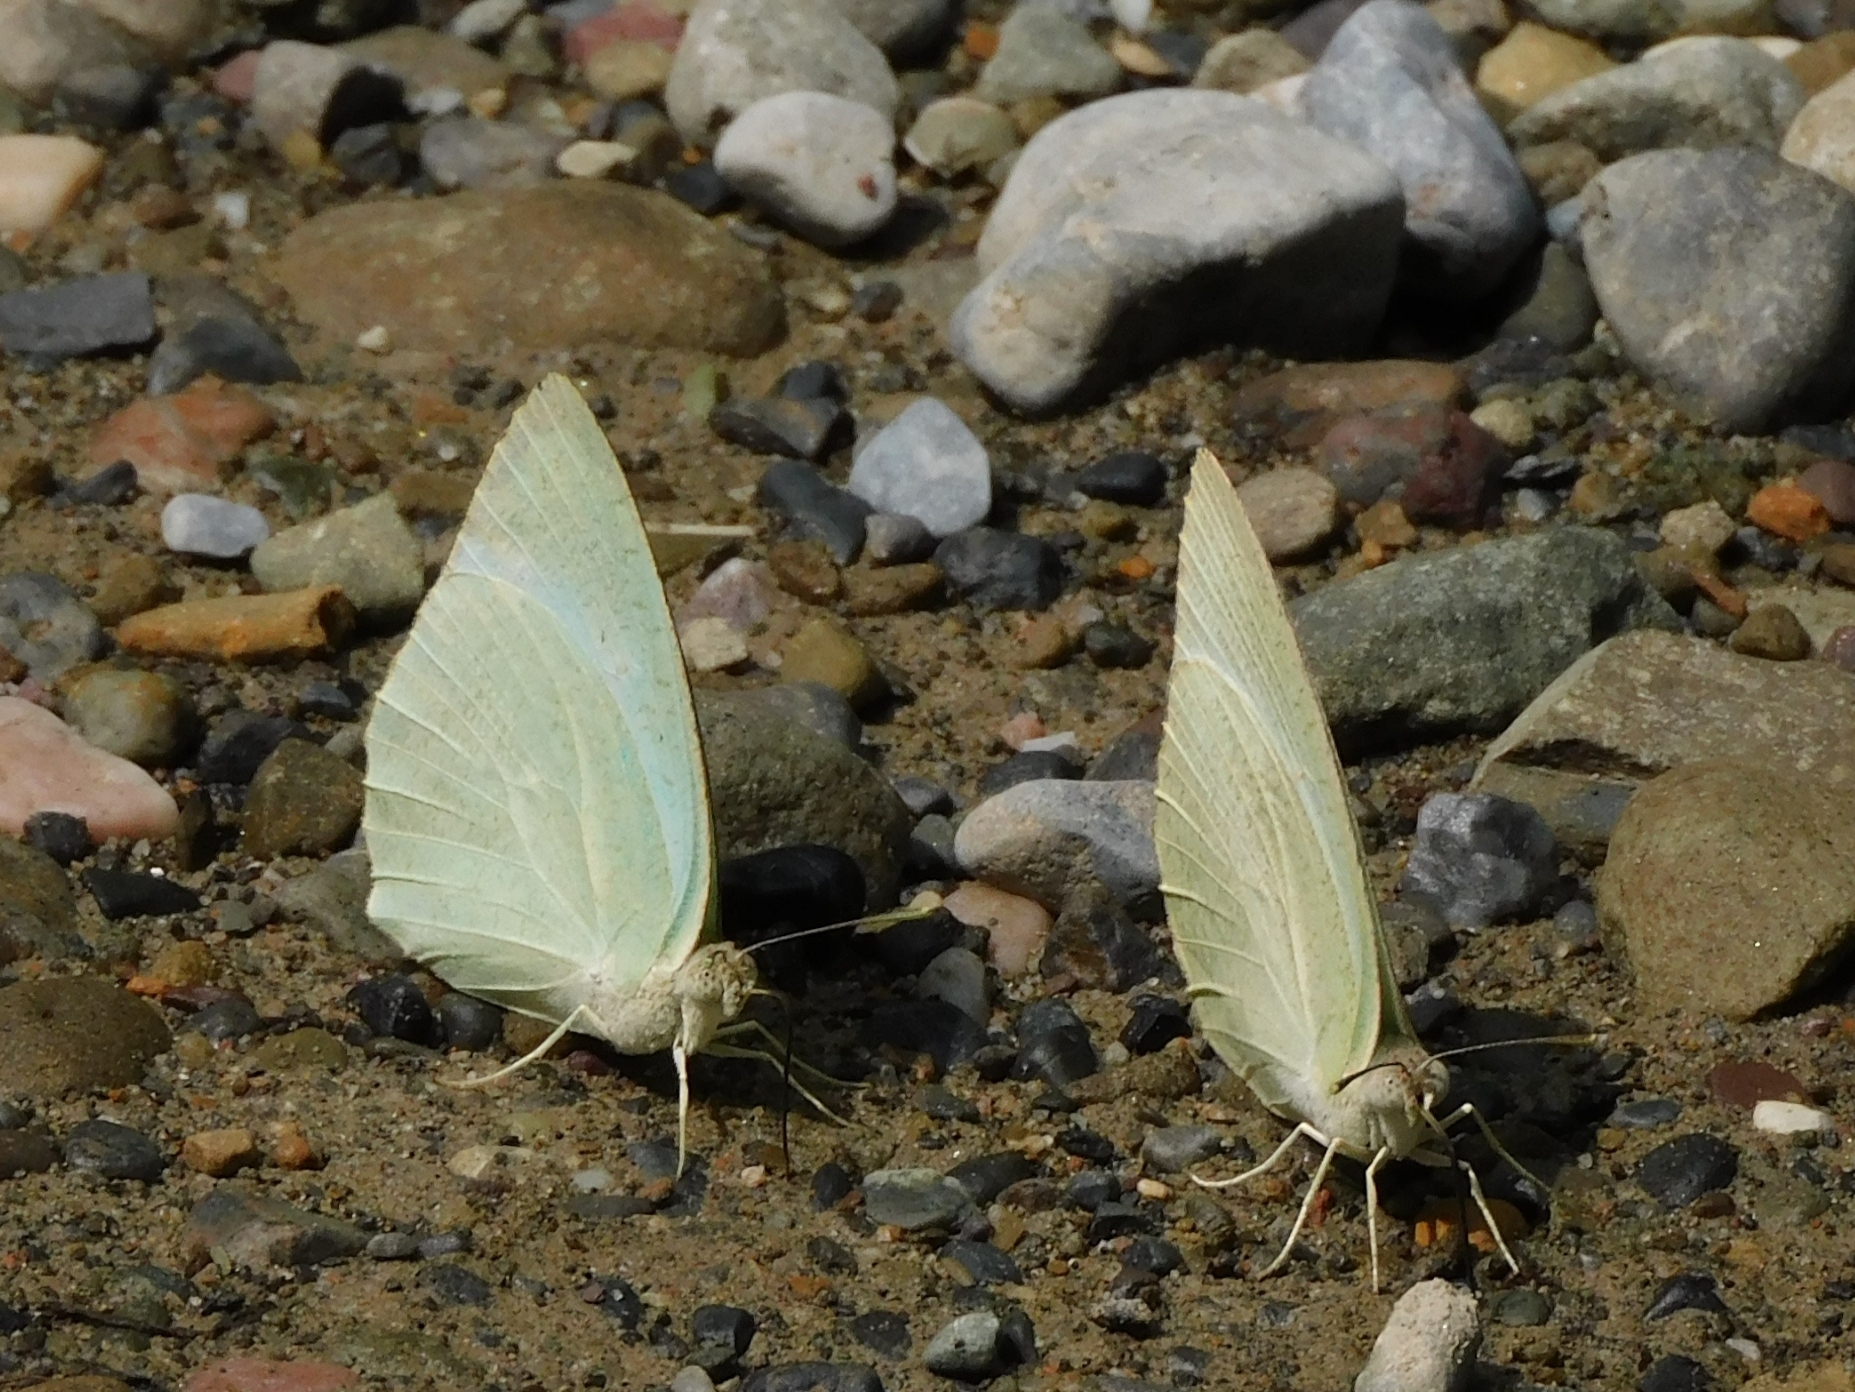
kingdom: Animalia
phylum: Arthropoda
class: Insecta
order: Lepidoptera
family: Pieridae
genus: Catopsilia
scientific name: Catopsilia pyranthe
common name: Mottled emigrant
